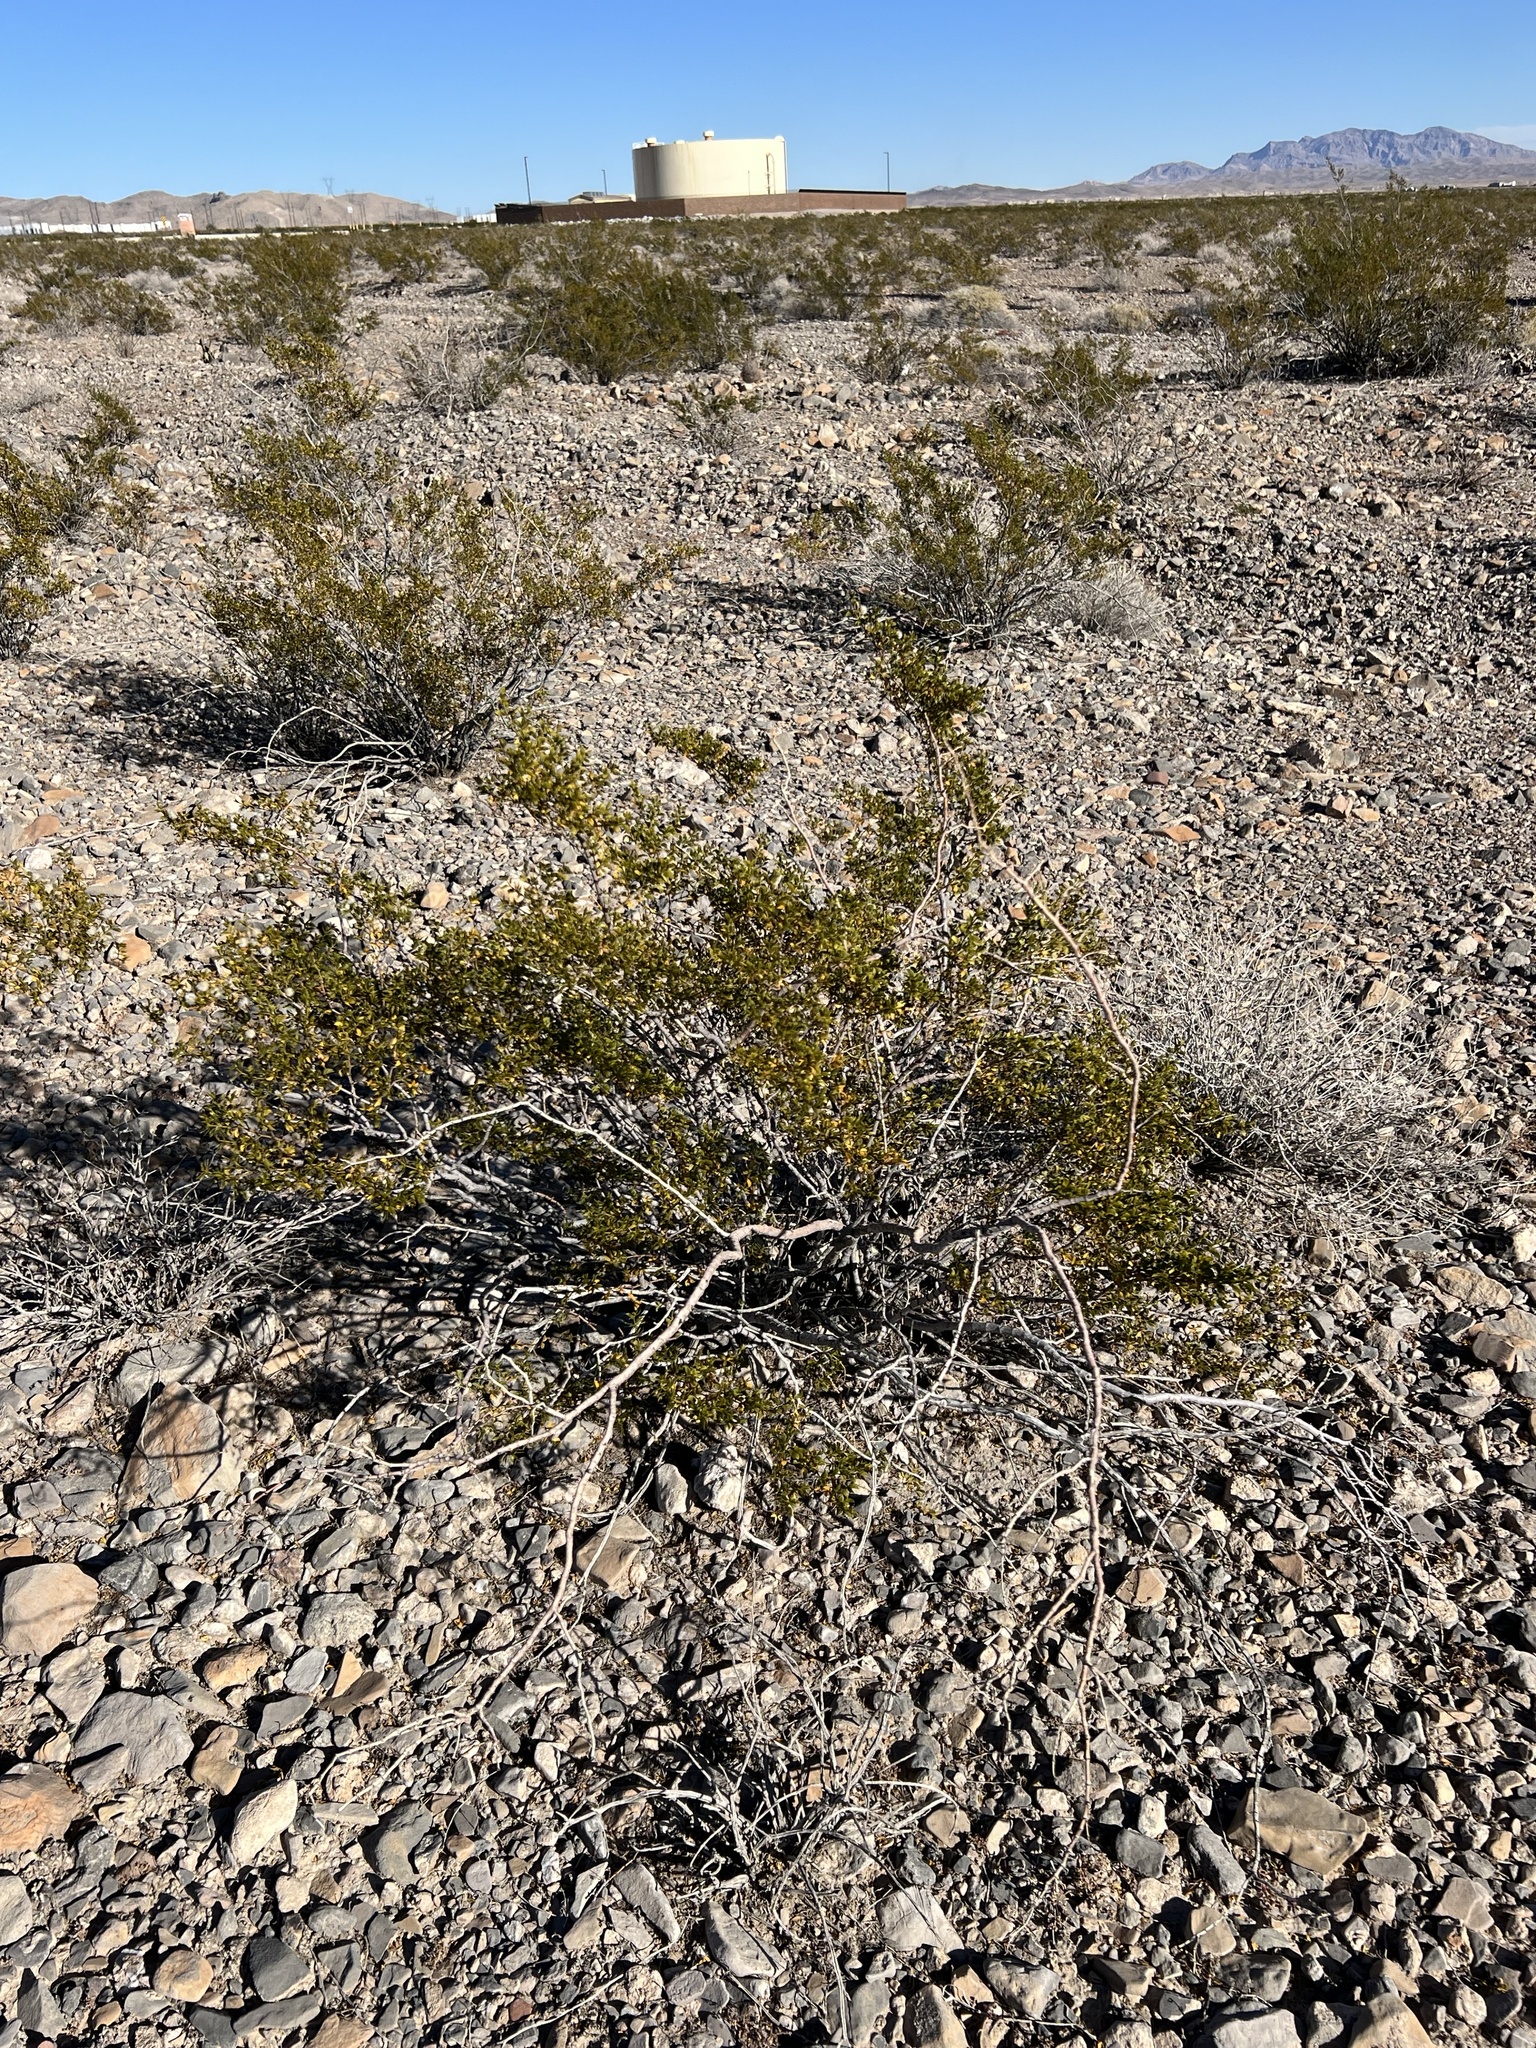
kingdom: Plantae
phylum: Tracheophyta
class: Magnoliopsida
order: Zygophyllales
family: Zygophyllaceae
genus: Larrea
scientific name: Larrea tridentata
